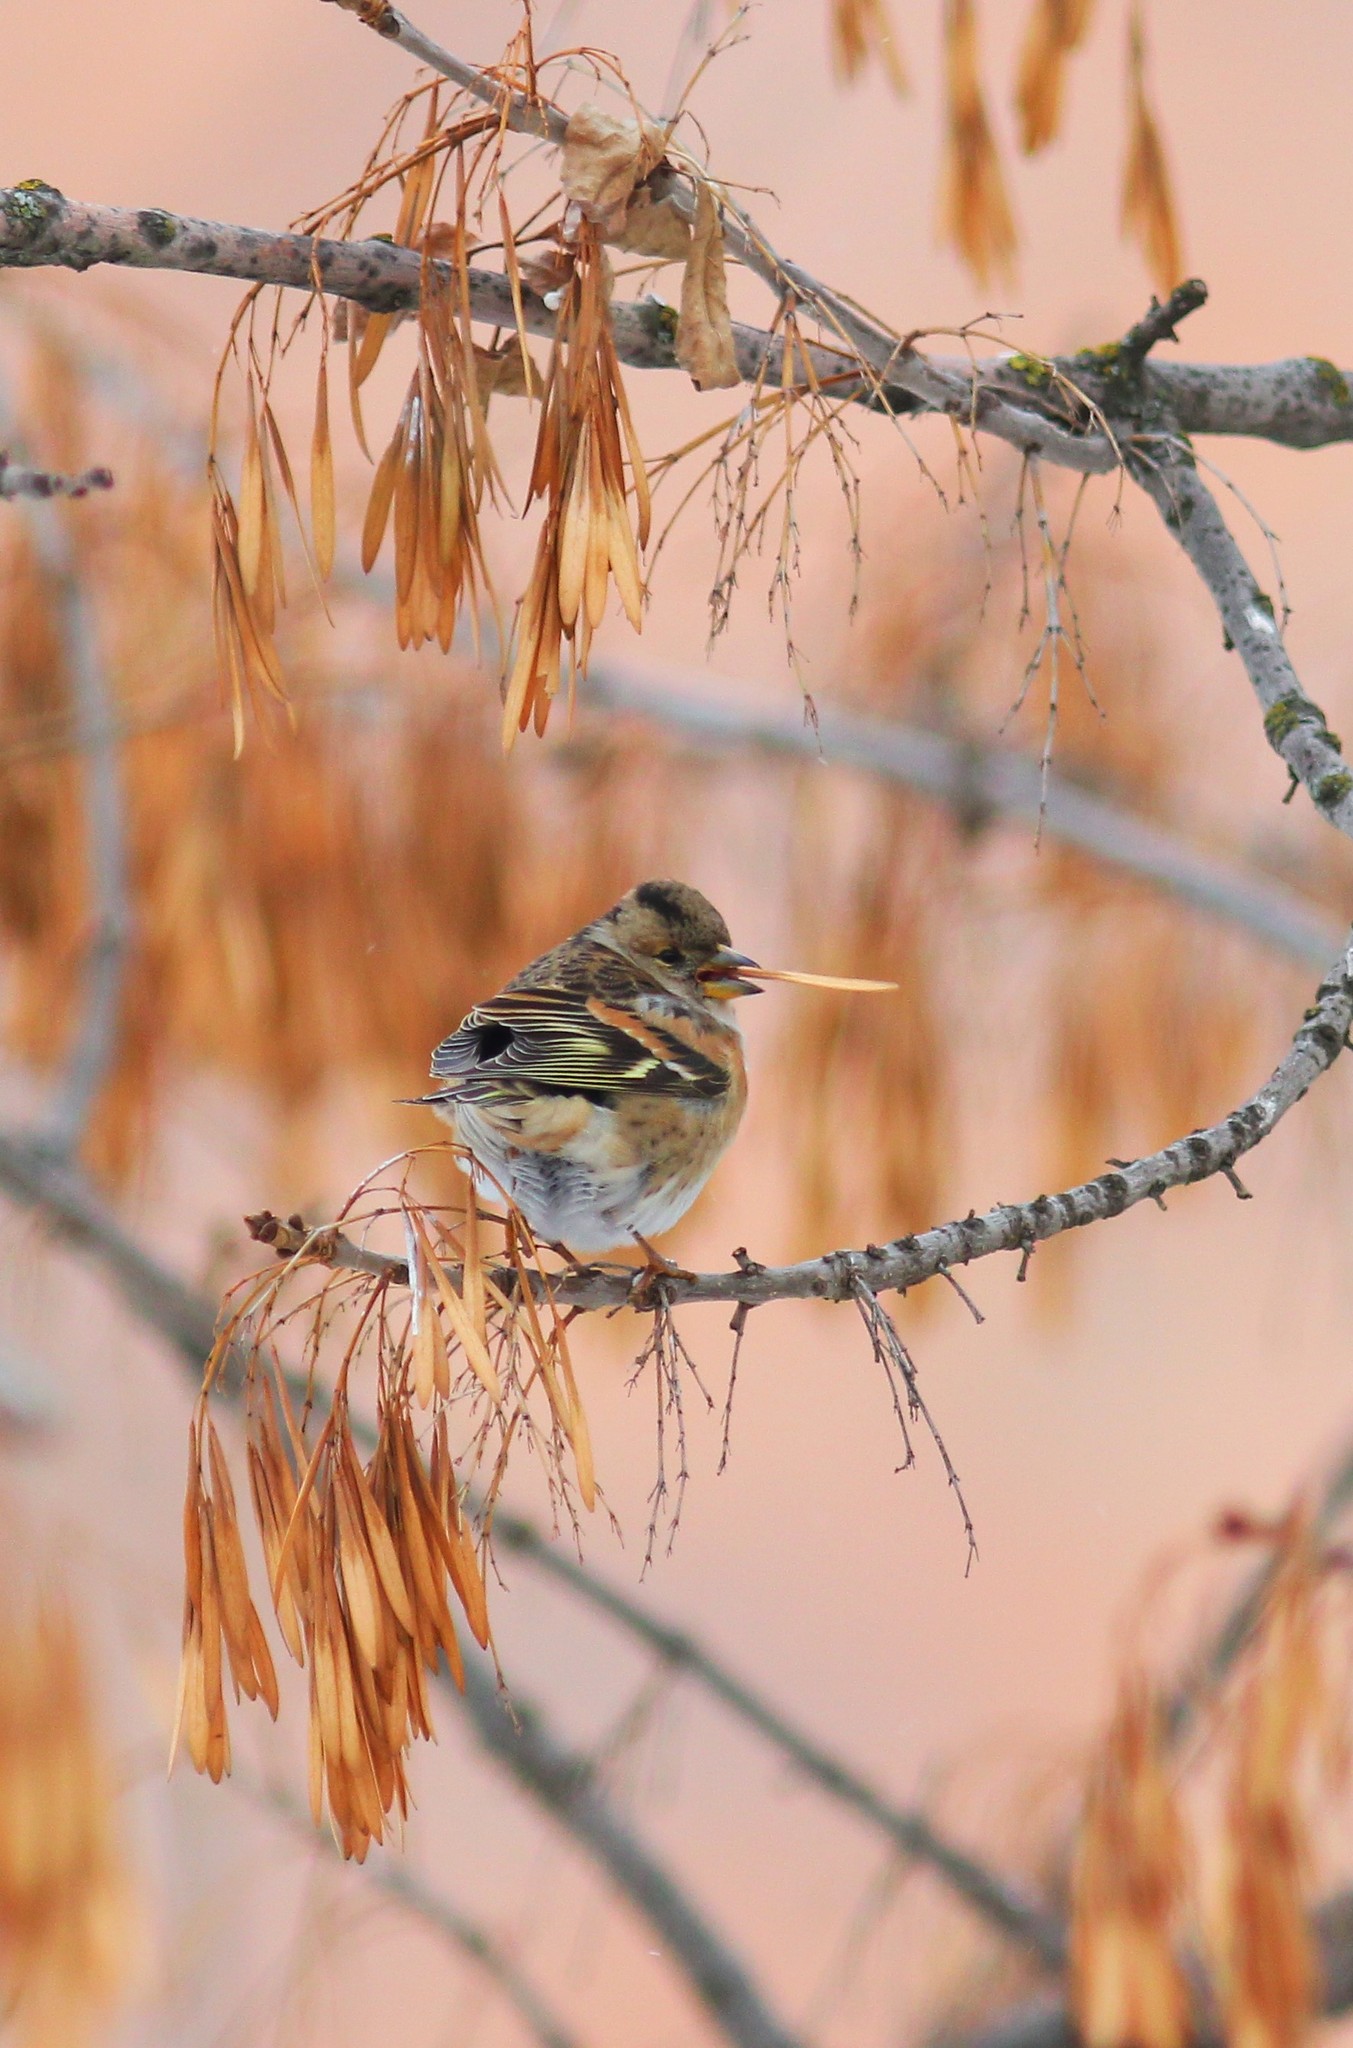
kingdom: Animalia
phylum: Chordata
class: Aves
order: Passeriformes
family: Fringillidae
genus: Fringilla
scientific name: Fringilla montifringilla
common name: Brambling
